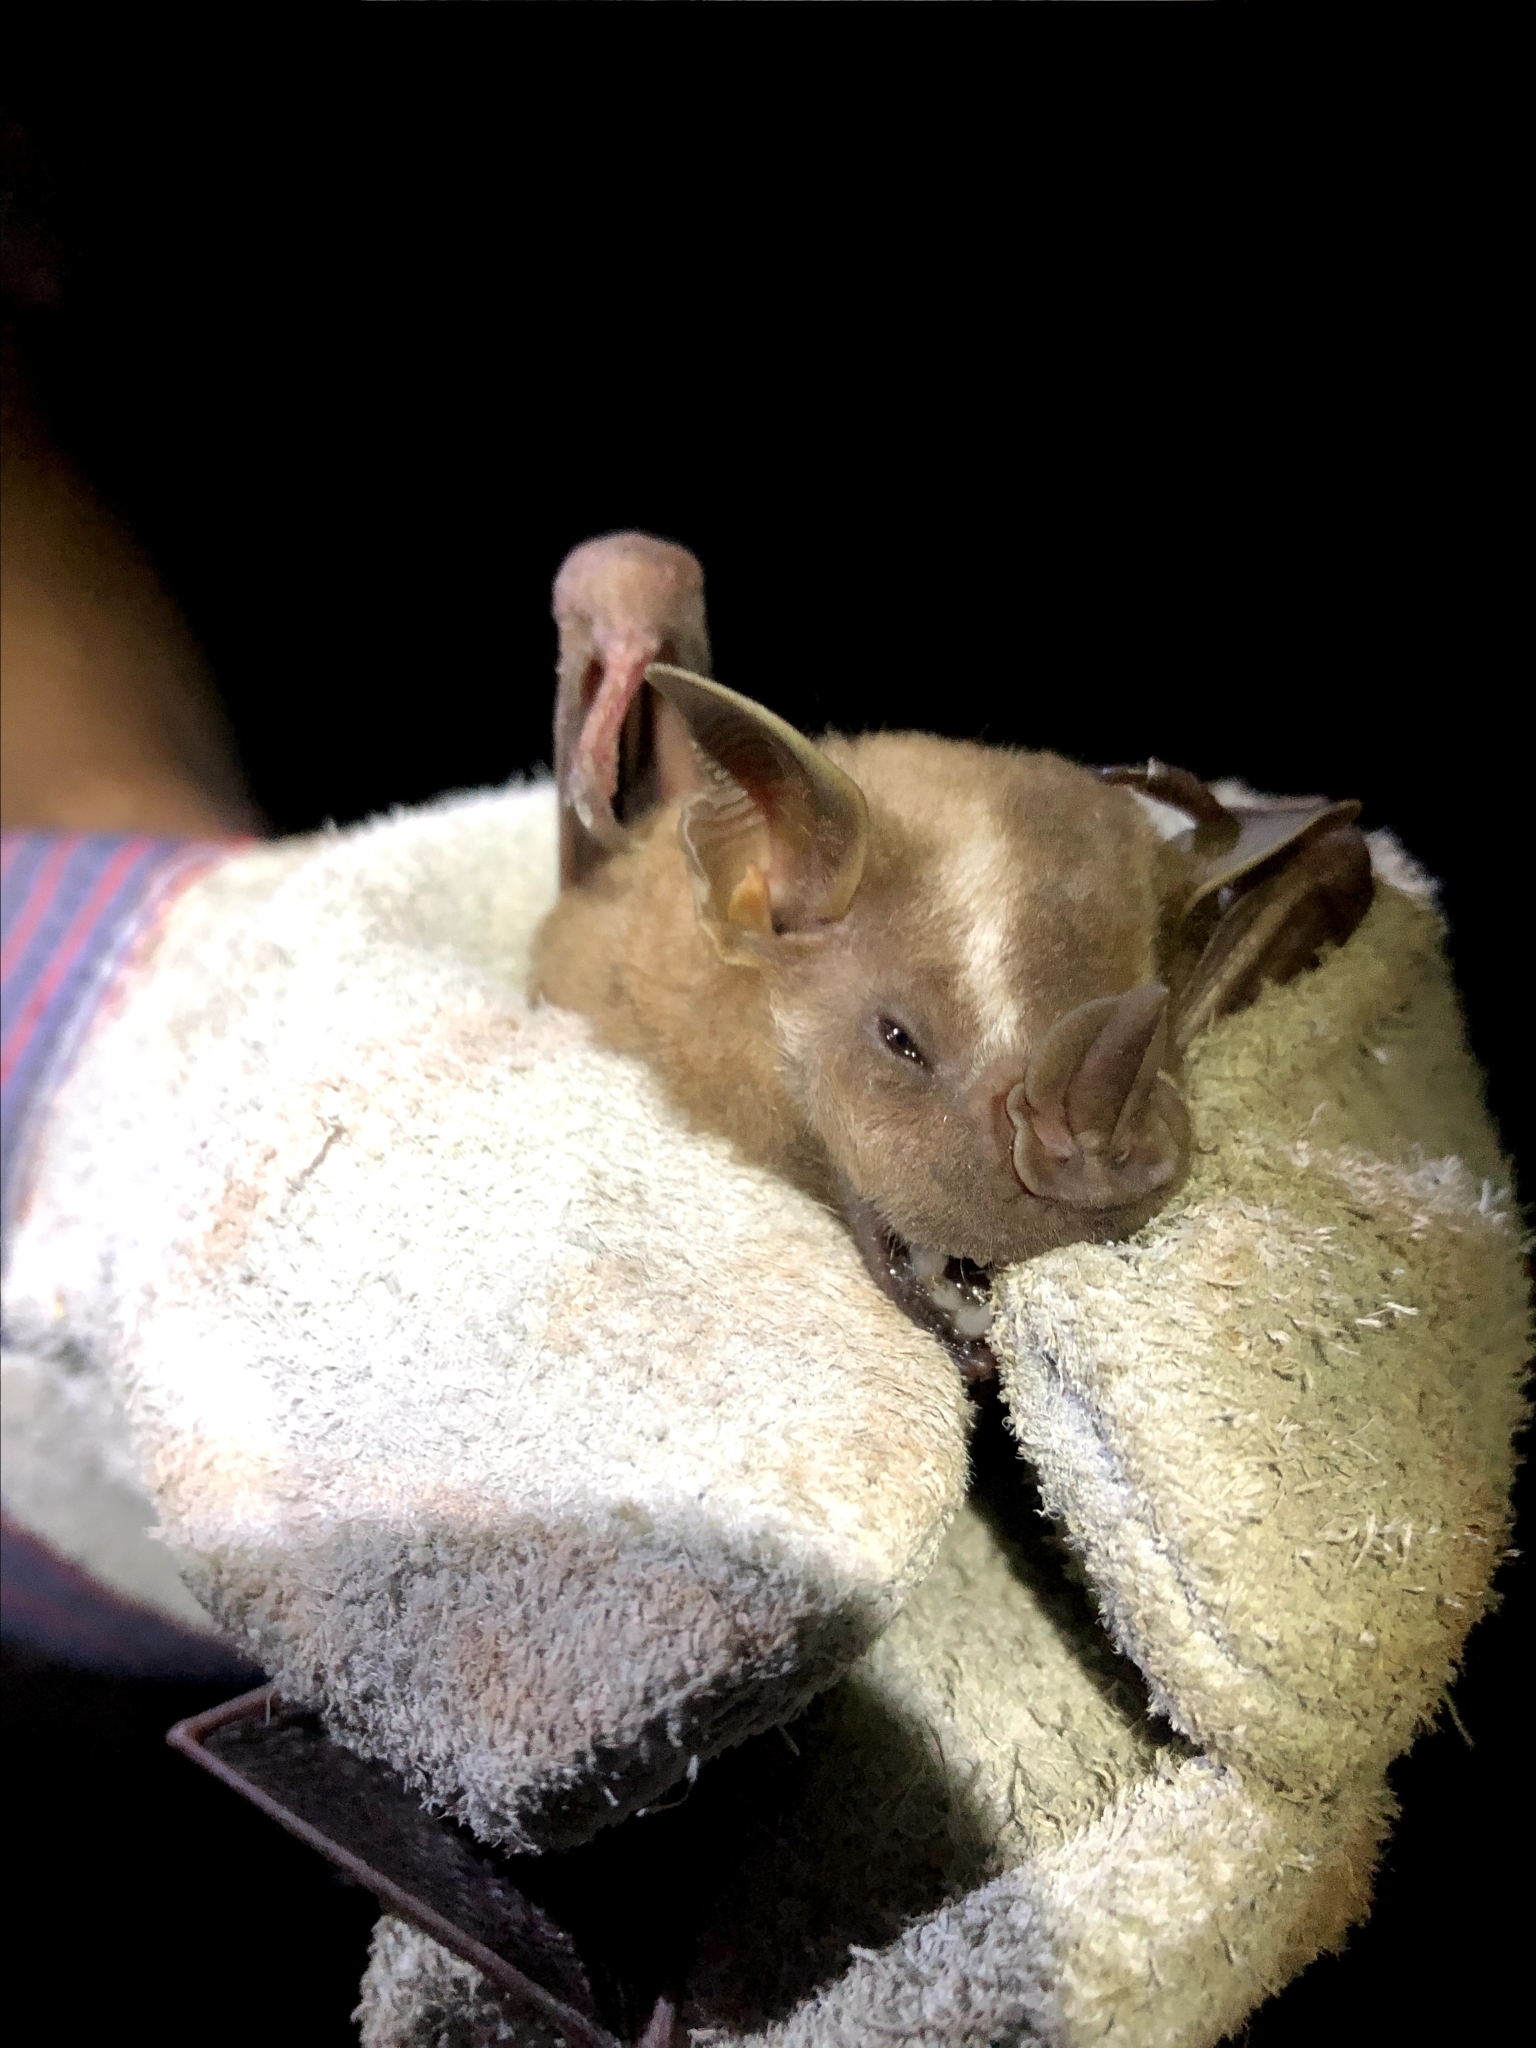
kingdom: Animalia
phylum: Chordata
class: Mammalia
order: Chiroptera
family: Phyllostomidae
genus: Artibeus
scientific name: Artibeus lituratus
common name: Great fruit-eating bat
